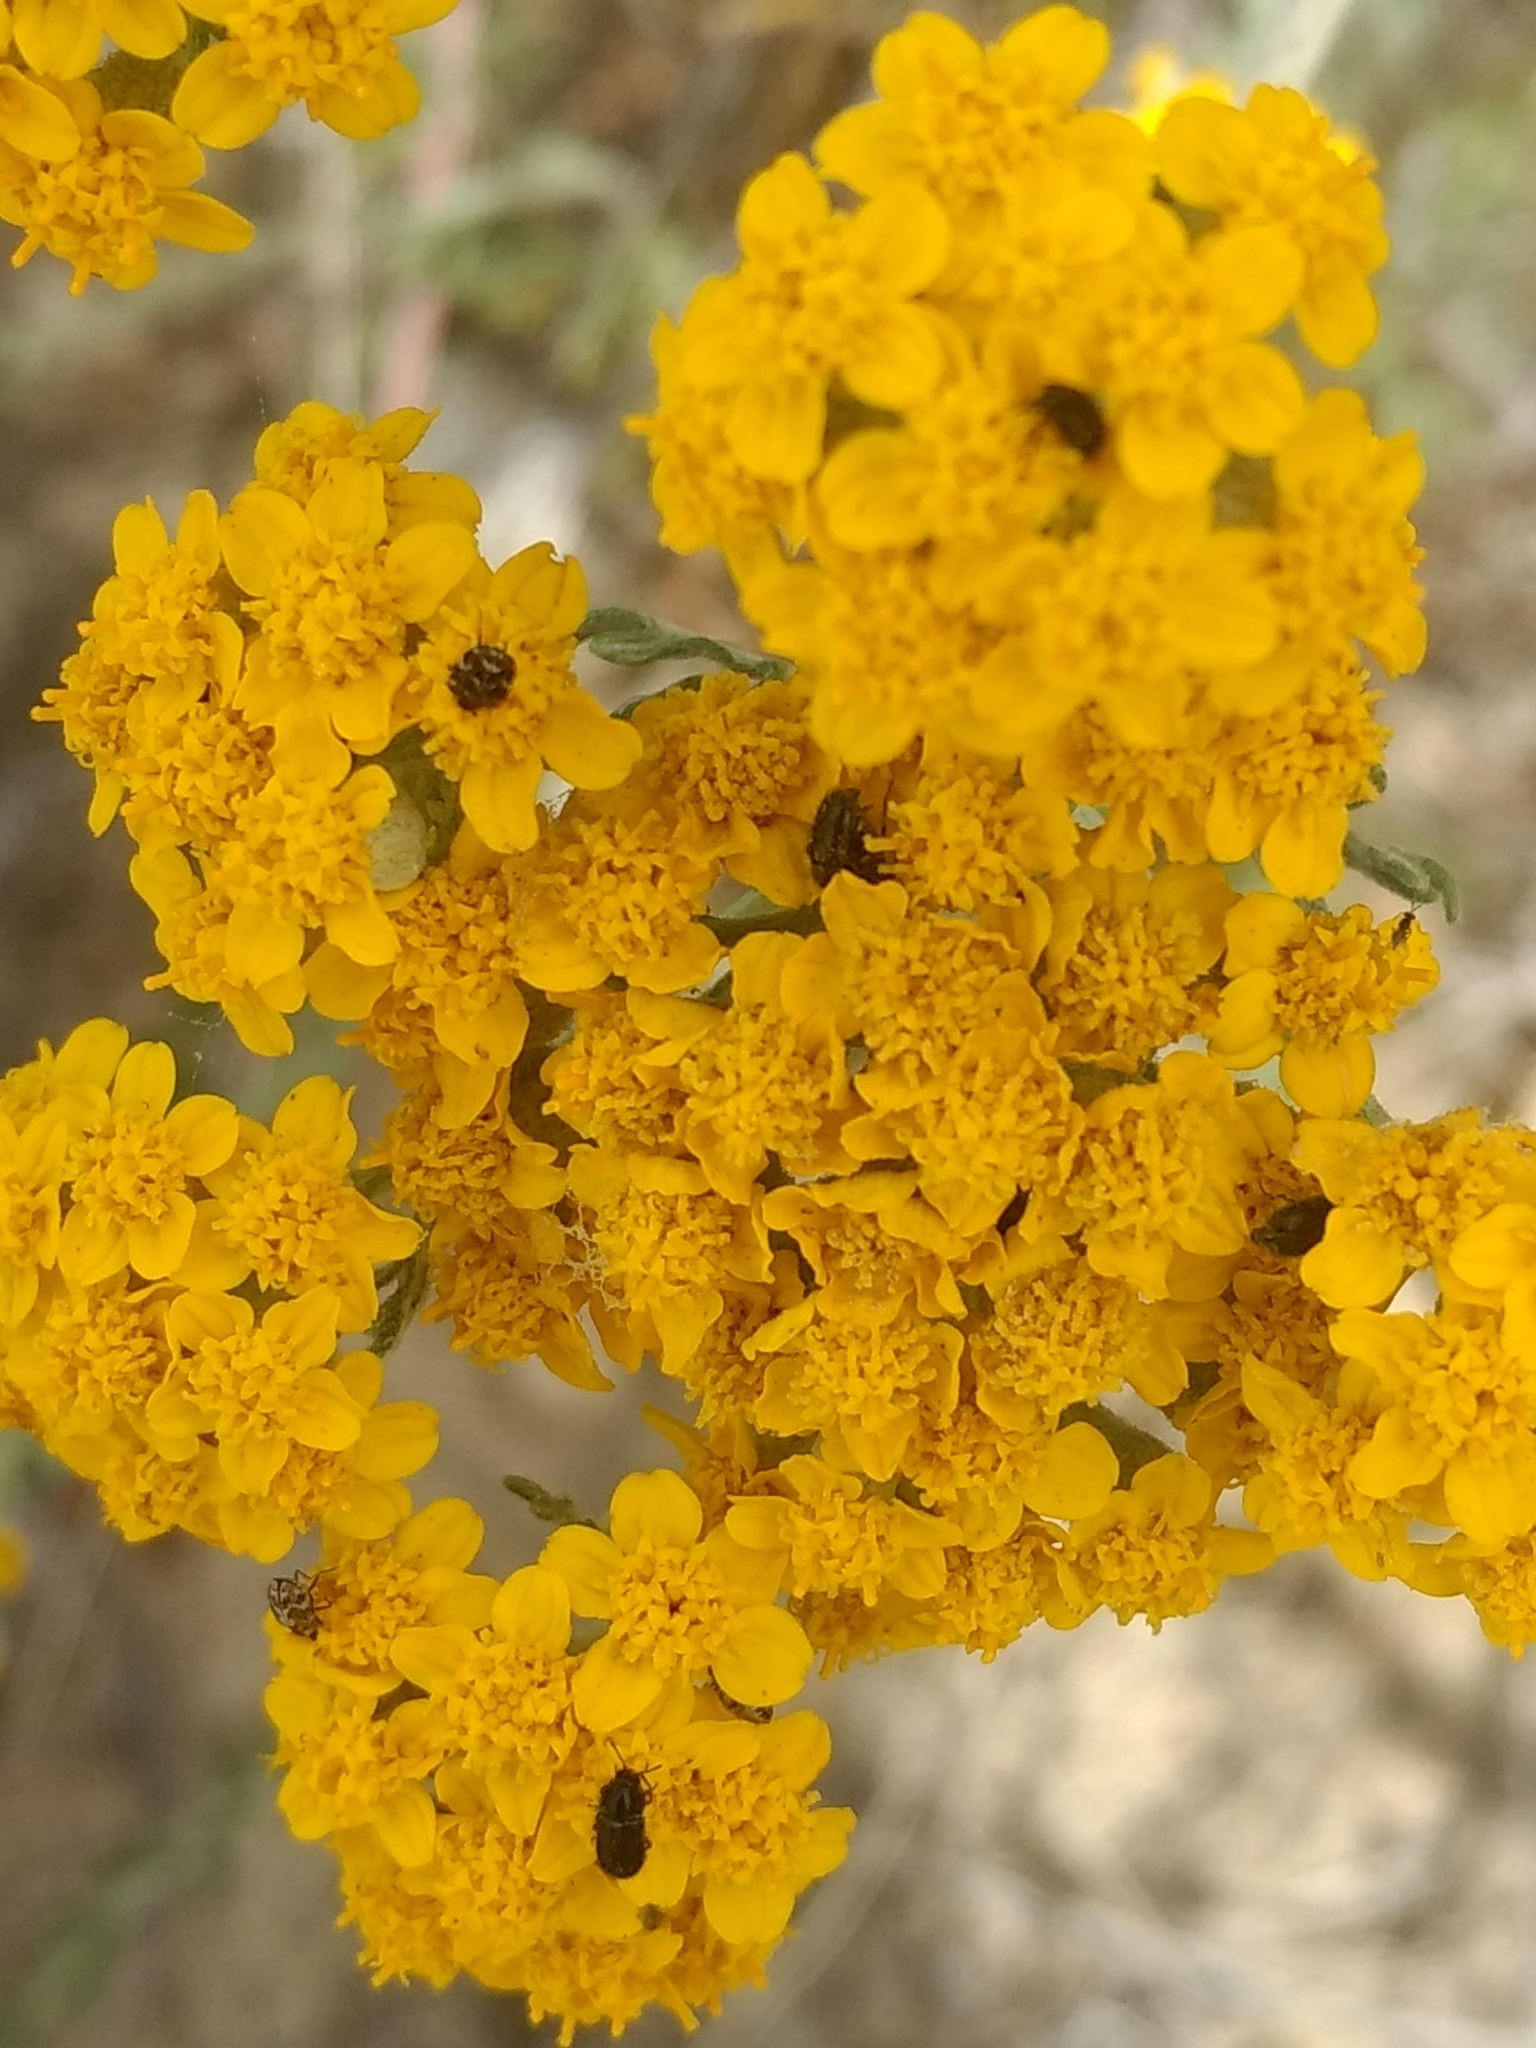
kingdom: Plantae
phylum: Tracheophyta
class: Magnoliopsida
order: Asterales
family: Asteraceae
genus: Eriophyllum
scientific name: Eriophyllum confertiflorum
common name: Golden-yarrow
